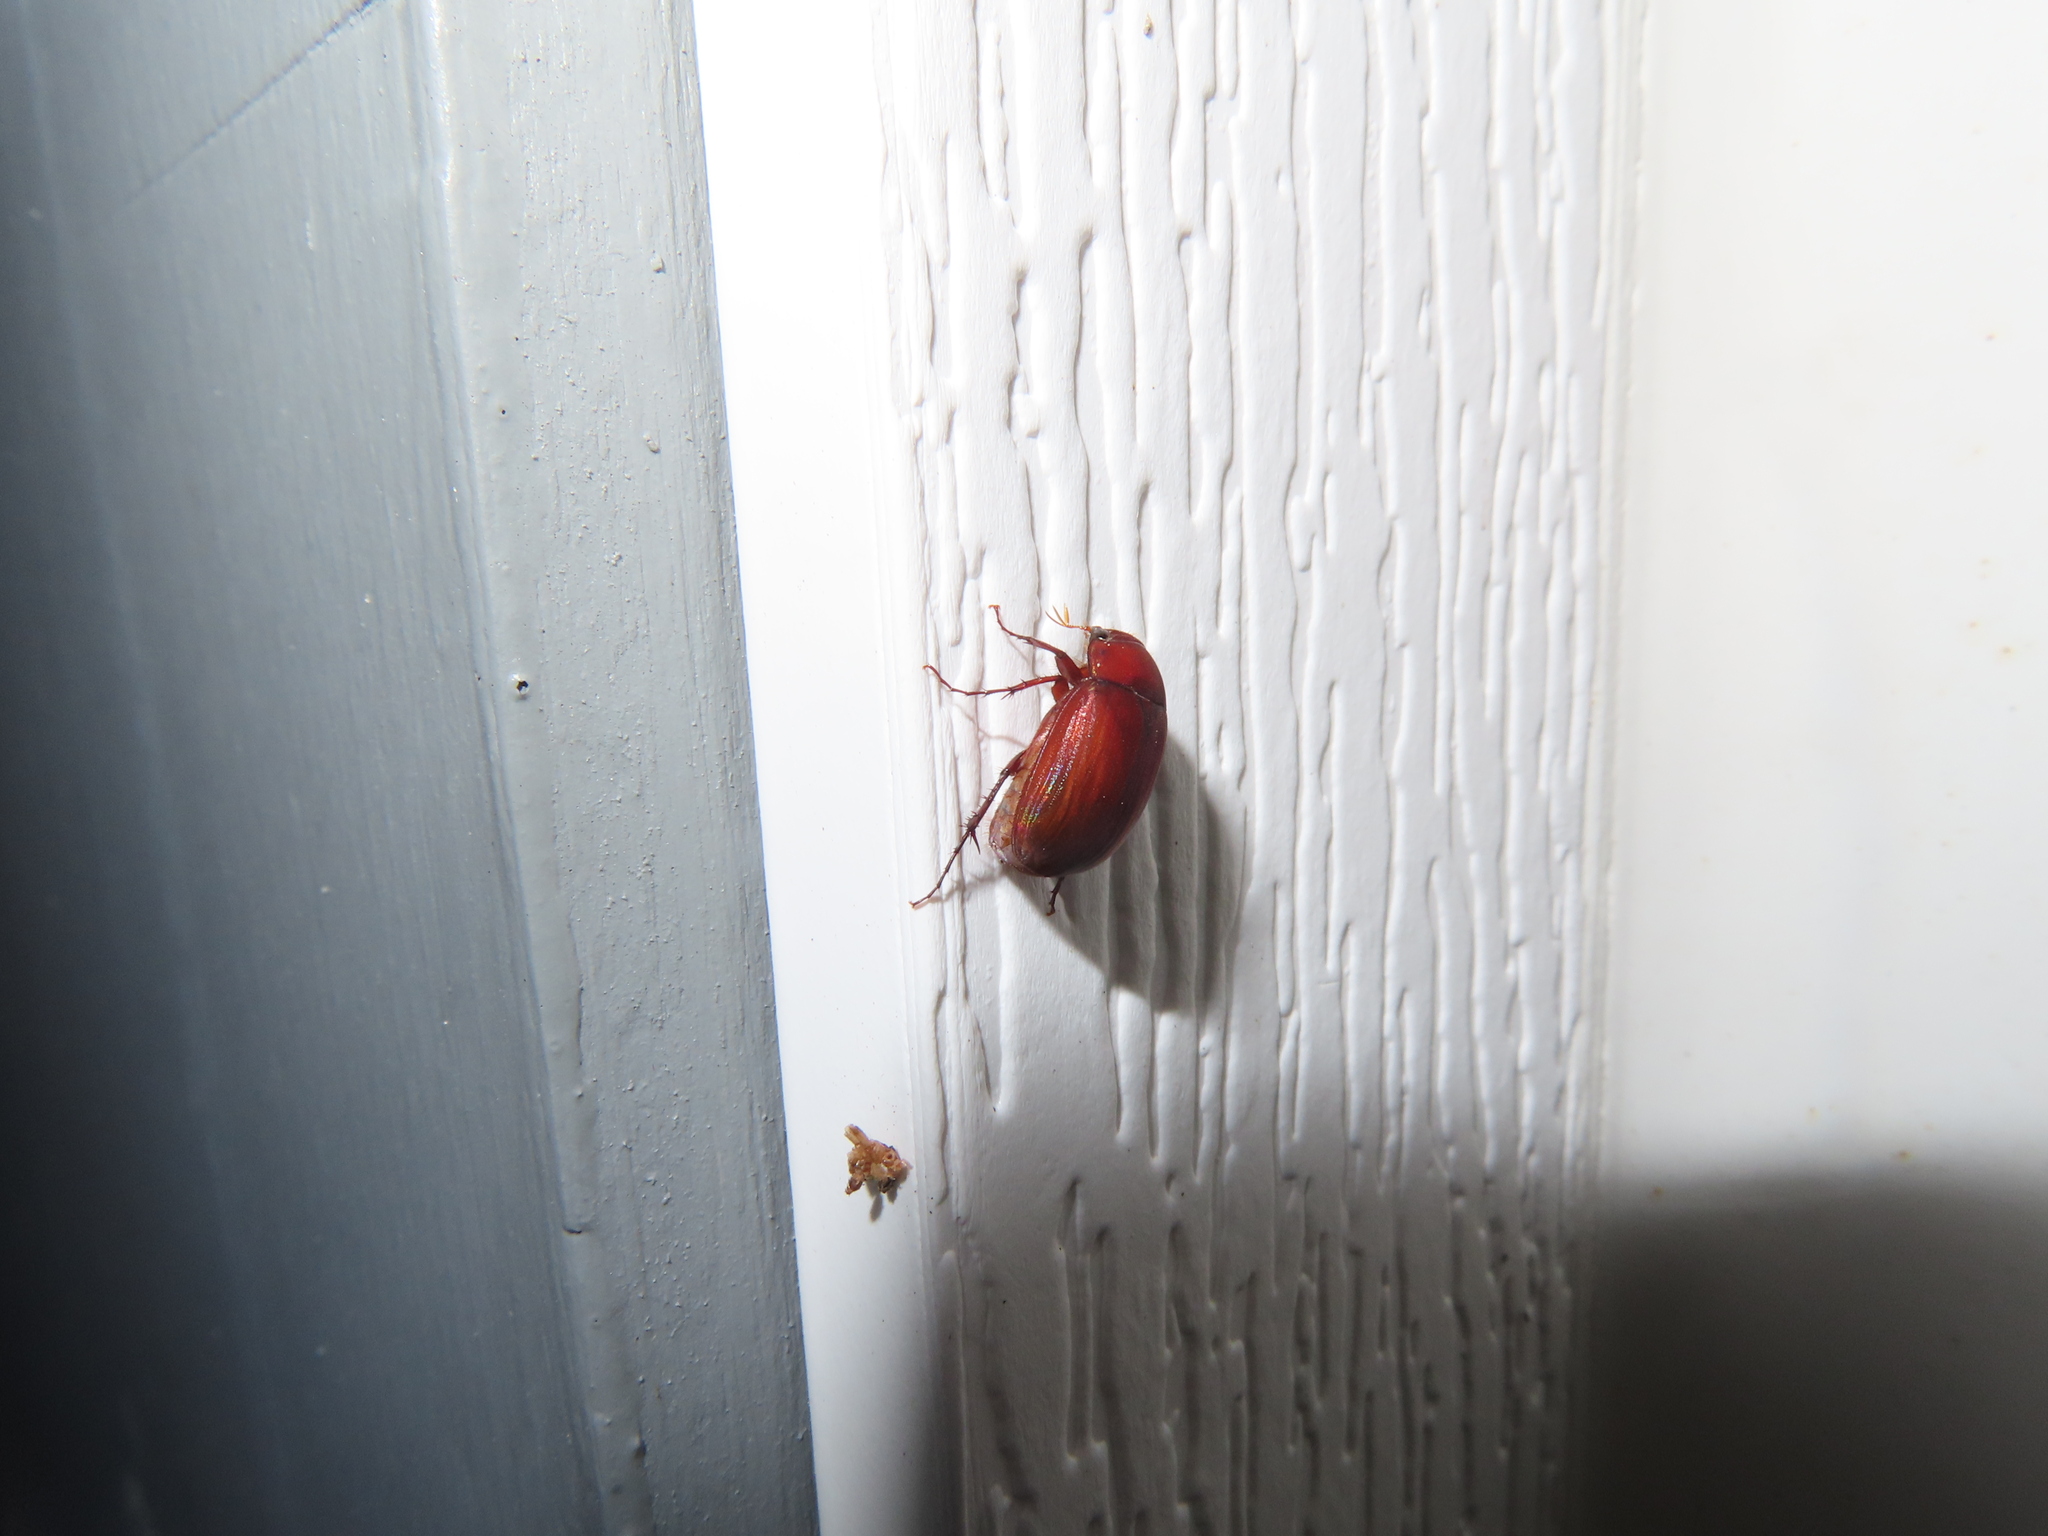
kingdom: Animalia
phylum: Arthropoda
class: Insecta
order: Coleoptera
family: Scarabaeidae
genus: Maladera
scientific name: Maladera formosae
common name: Asiatic garden beetle
